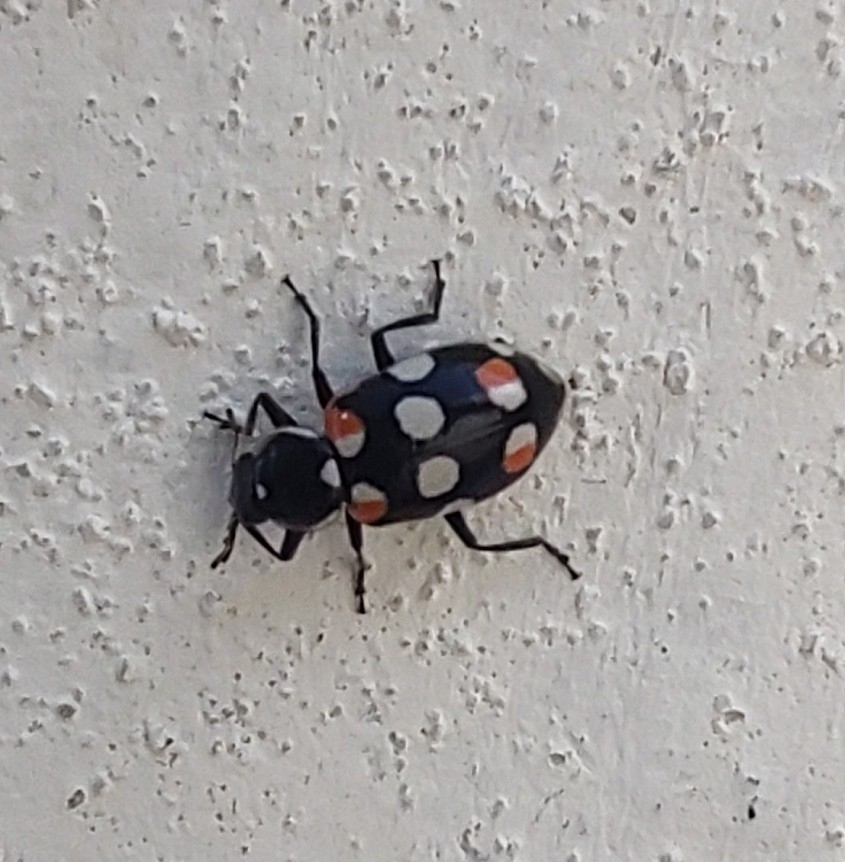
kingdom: Animalia
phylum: Arthropoda
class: Insecta
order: Coleoptera
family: Coccinellidae
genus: Eriopis
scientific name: Eriopis connexa
